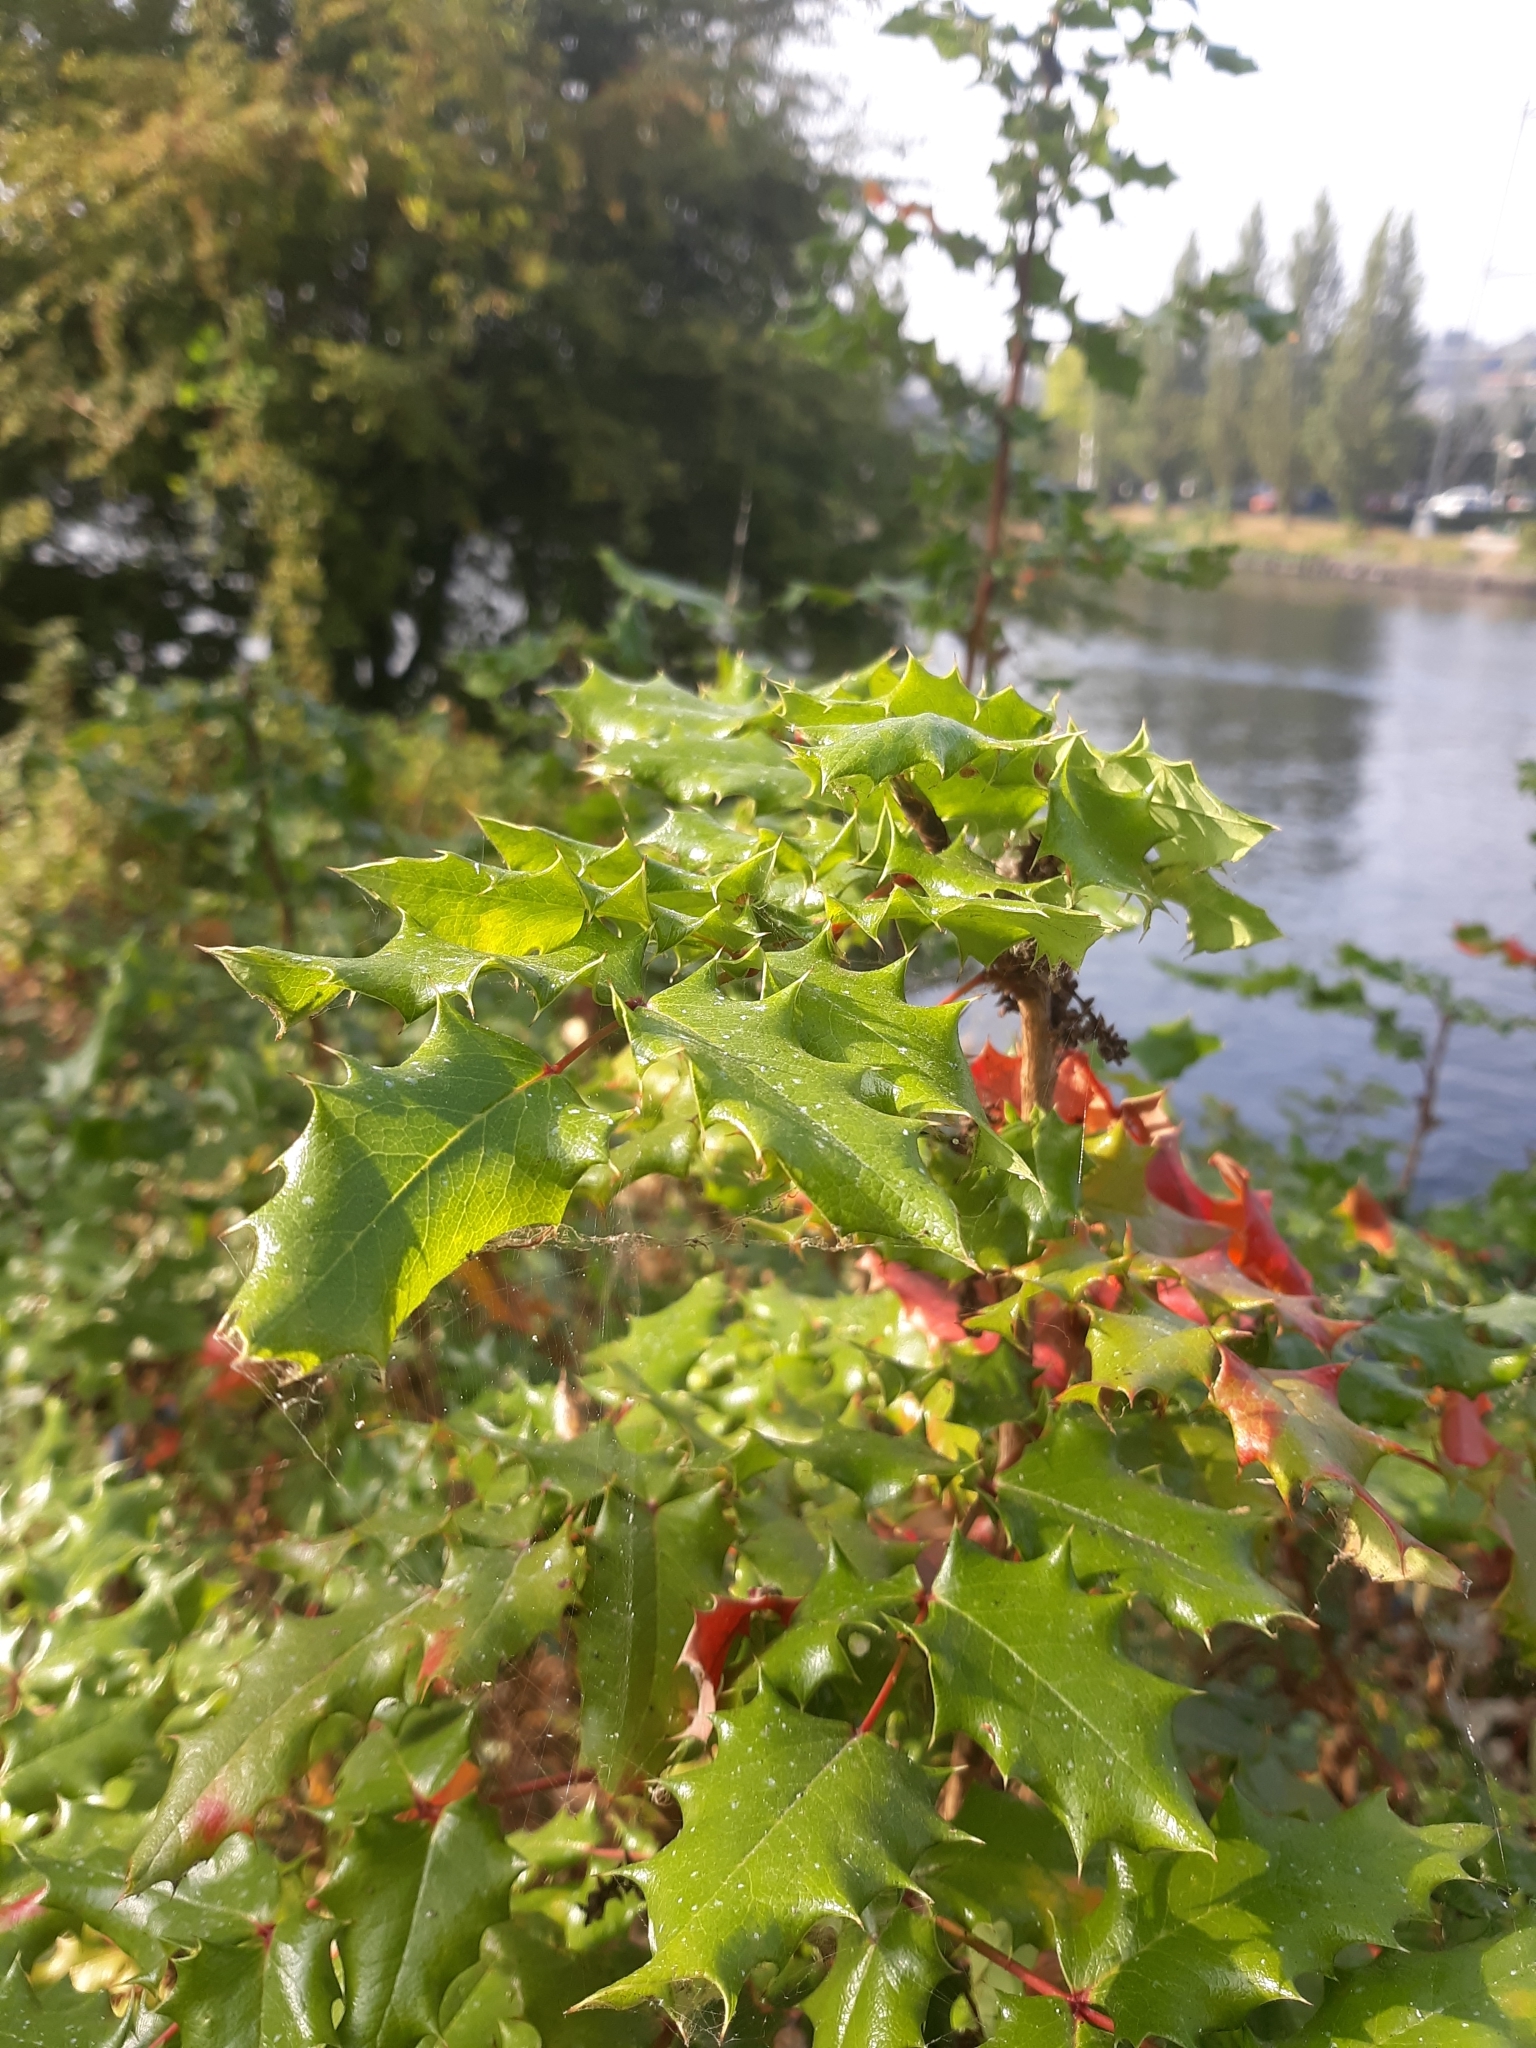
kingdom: Plantae
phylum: Tracheophyta
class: Magnoliopsida
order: Ranunculales
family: Berberidaceae
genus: Mahonia
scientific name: Mahonia aquifolium
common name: Oregon-grape
